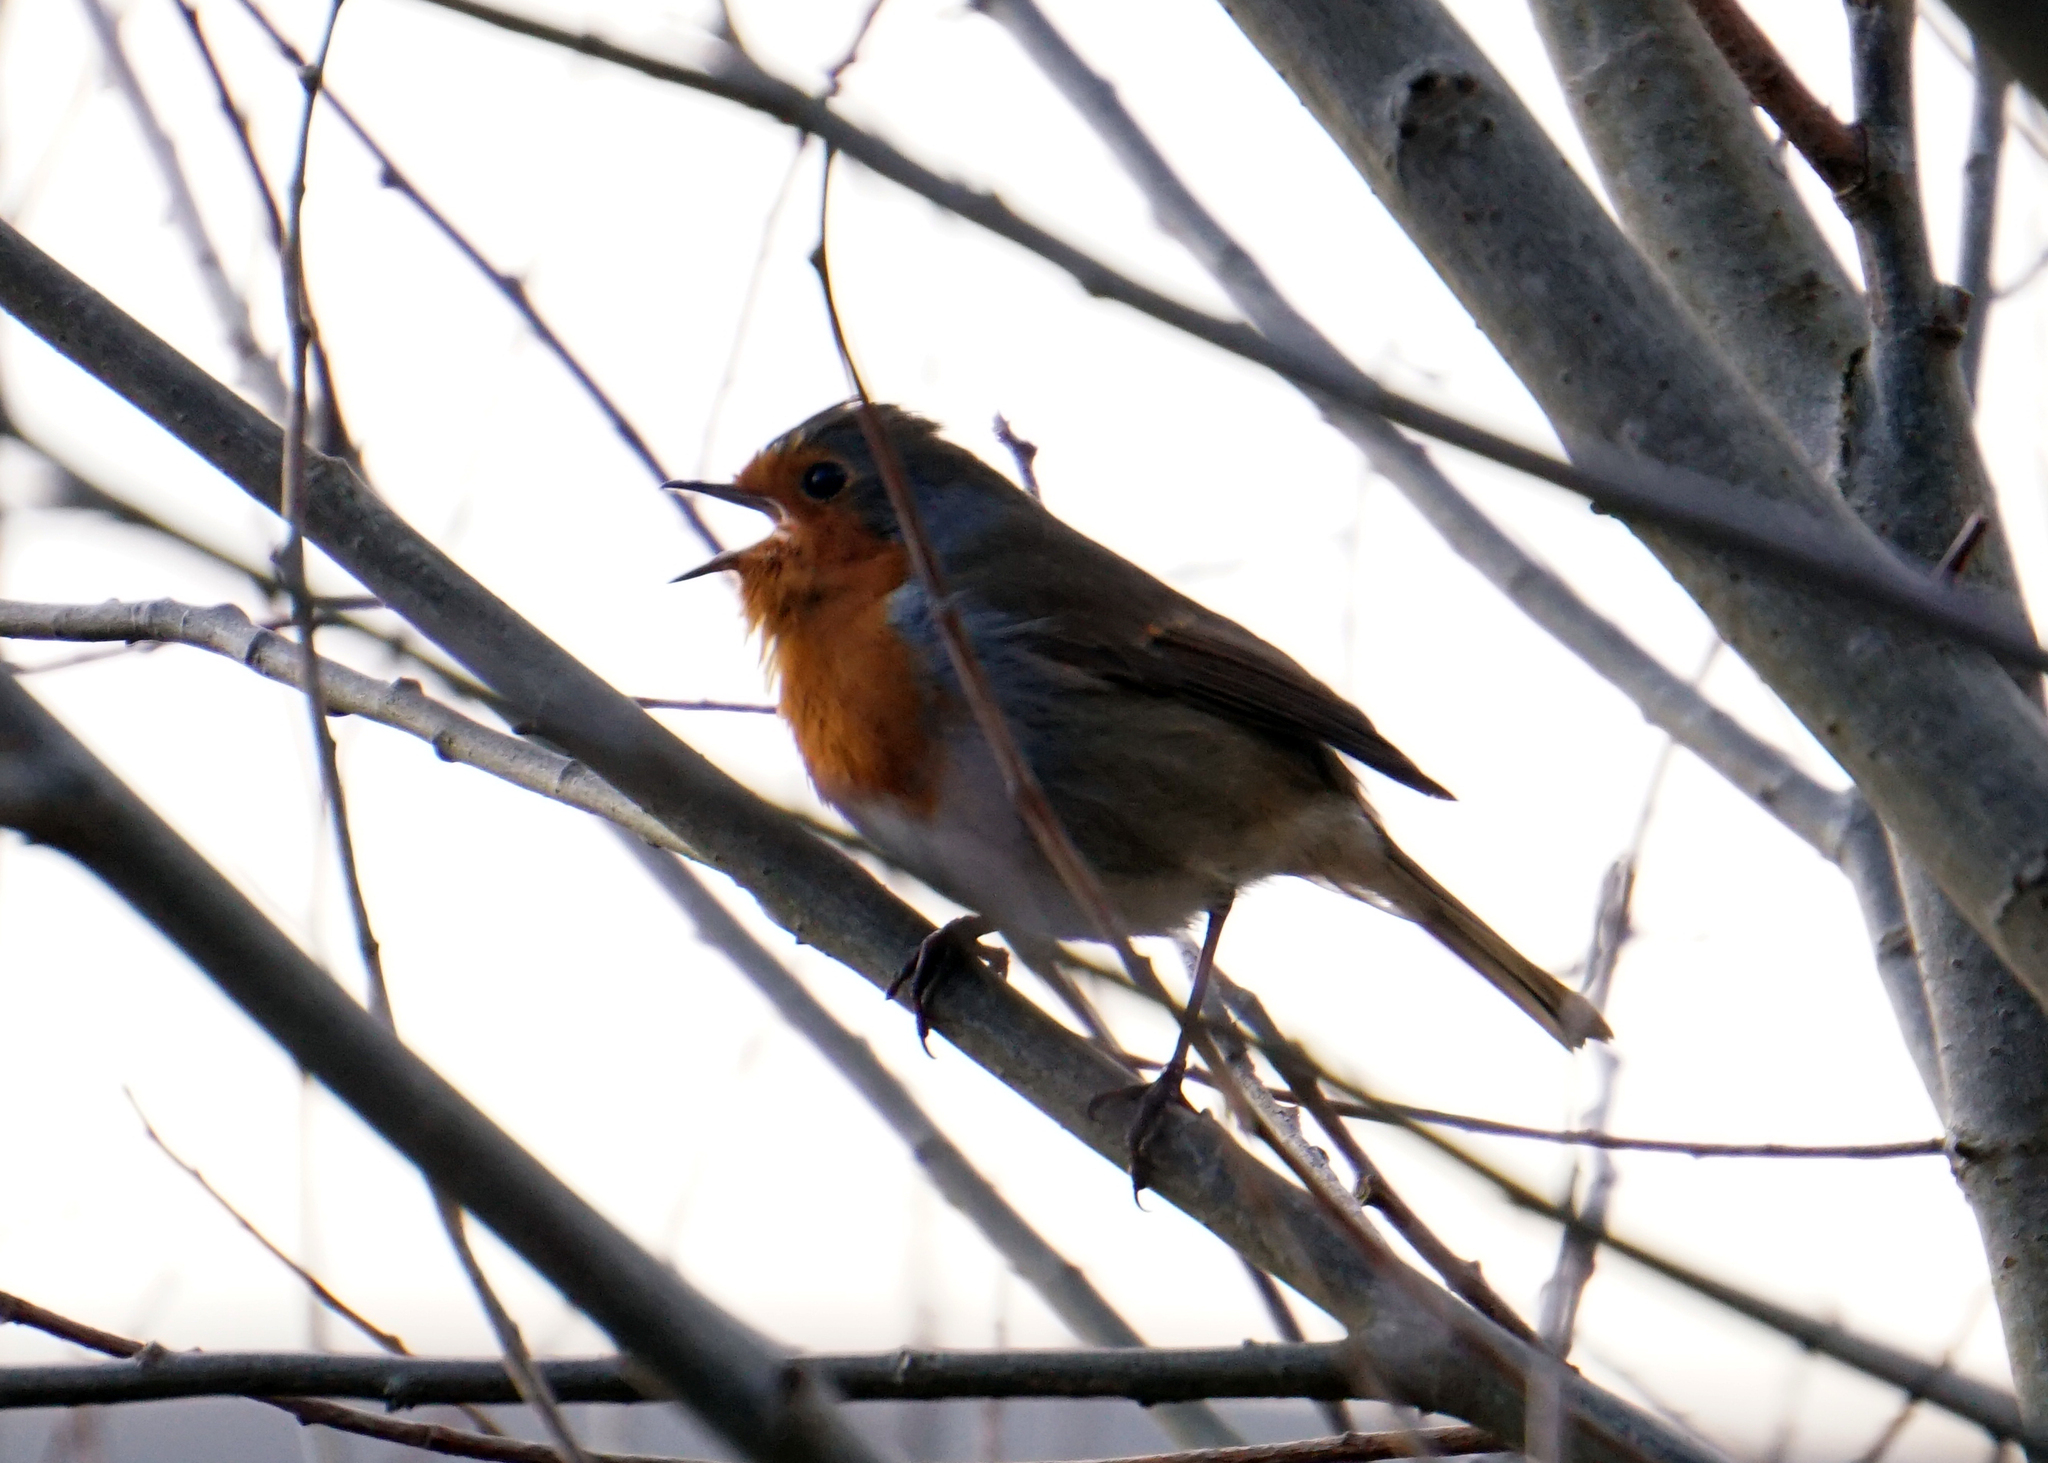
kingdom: Animalia
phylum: Chordata
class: Aves
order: Passeriformes
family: Muscicapidae
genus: Erithacus
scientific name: Erithacus rubecula
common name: European robin
